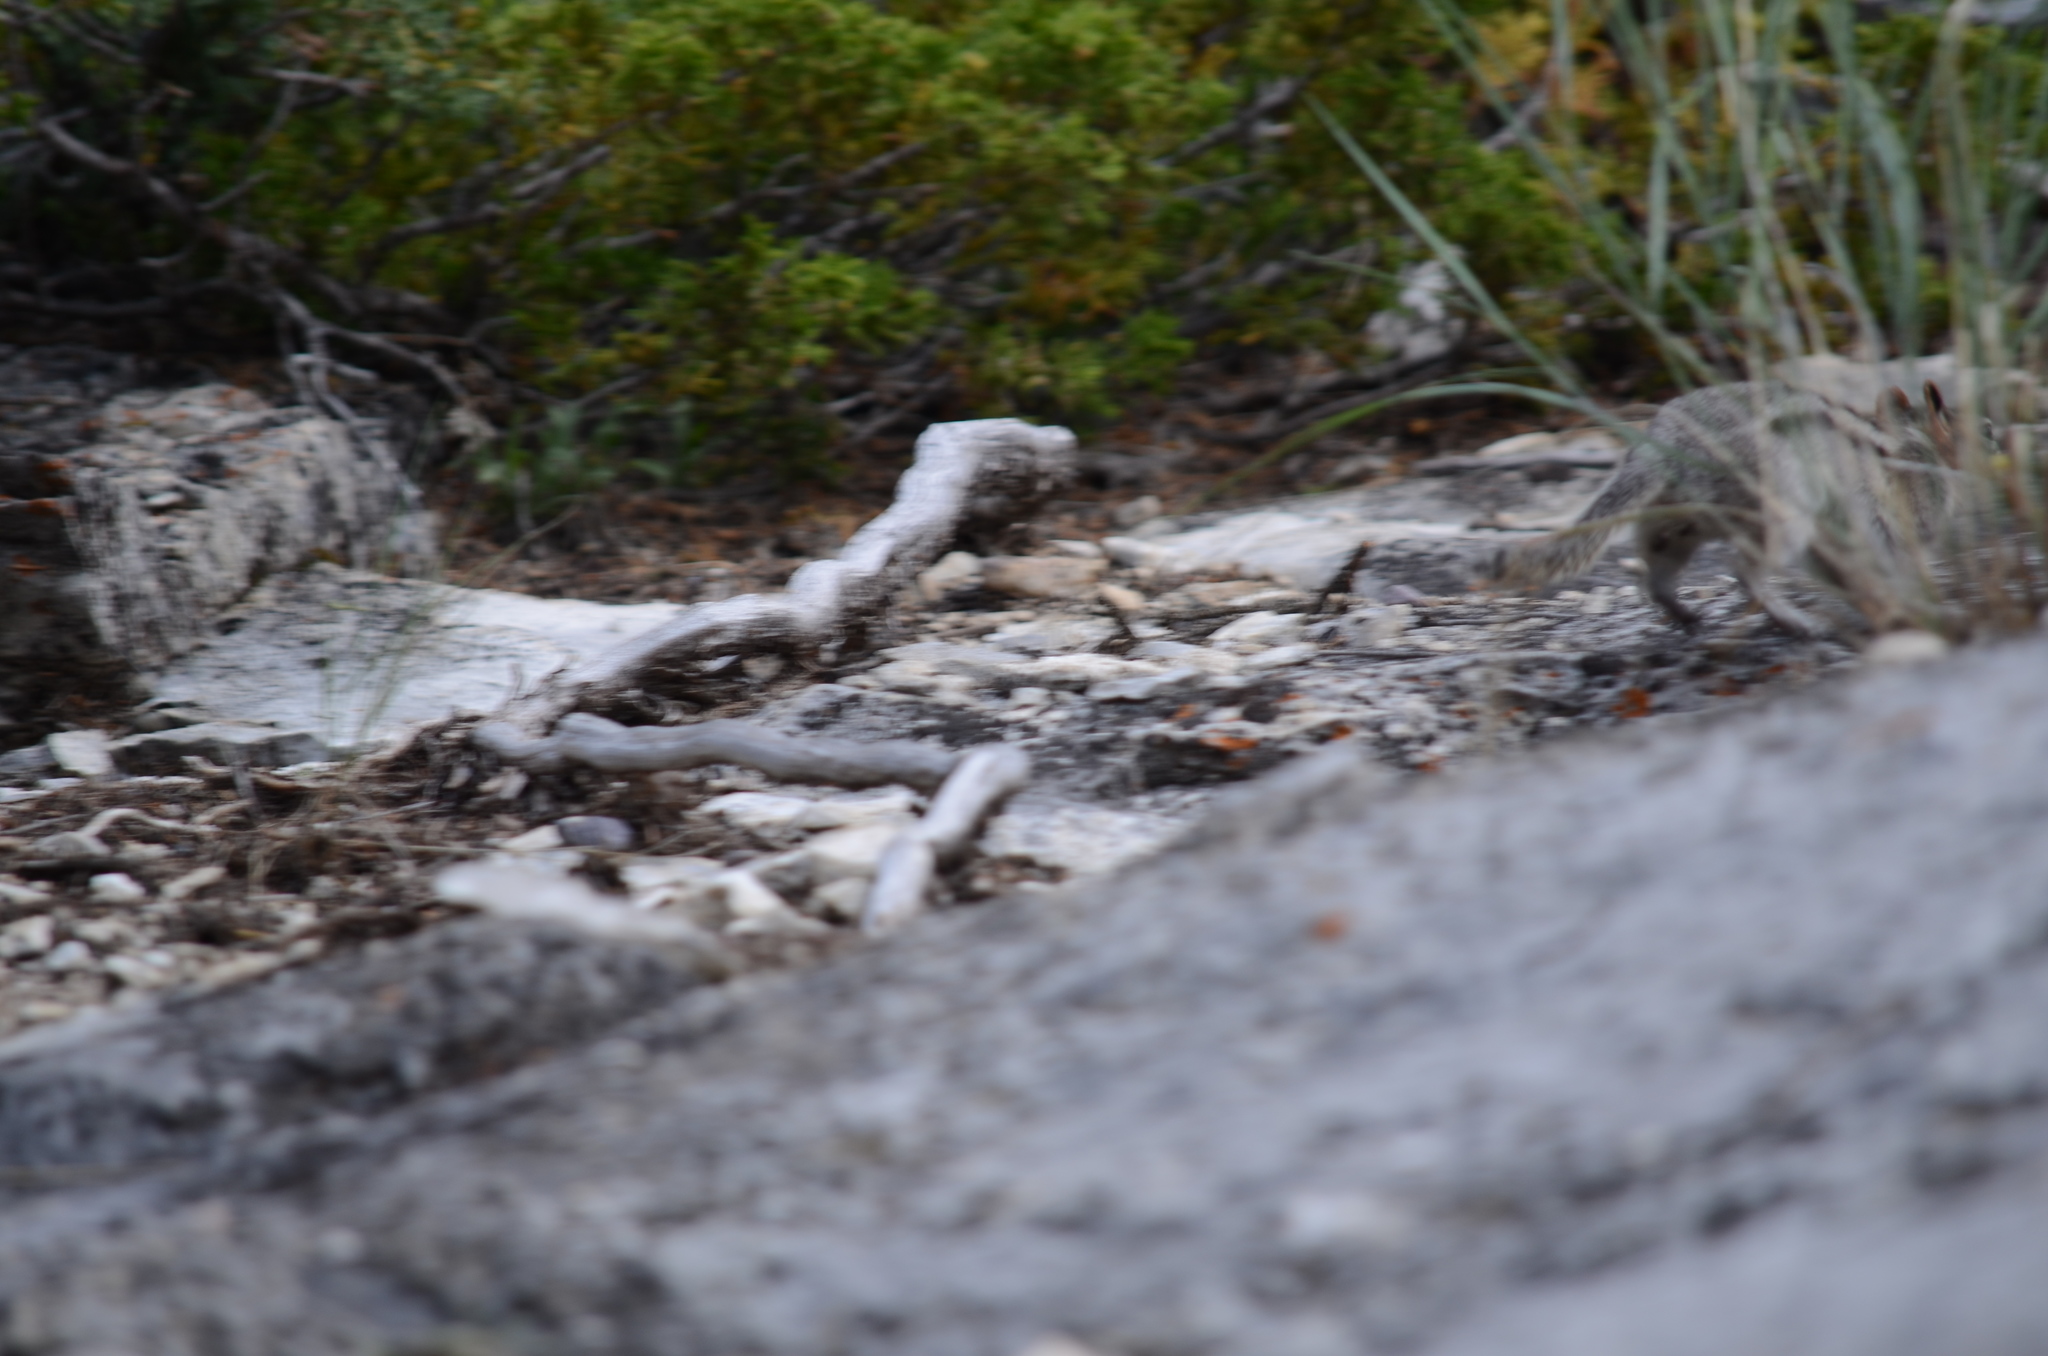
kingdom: Animalia
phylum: Chordata
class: Mammalia
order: Rodentia
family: Sciuridae
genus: Callospermophilus
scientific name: Callospermophilus lateralis
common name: Golden-mantled ground squirrel
